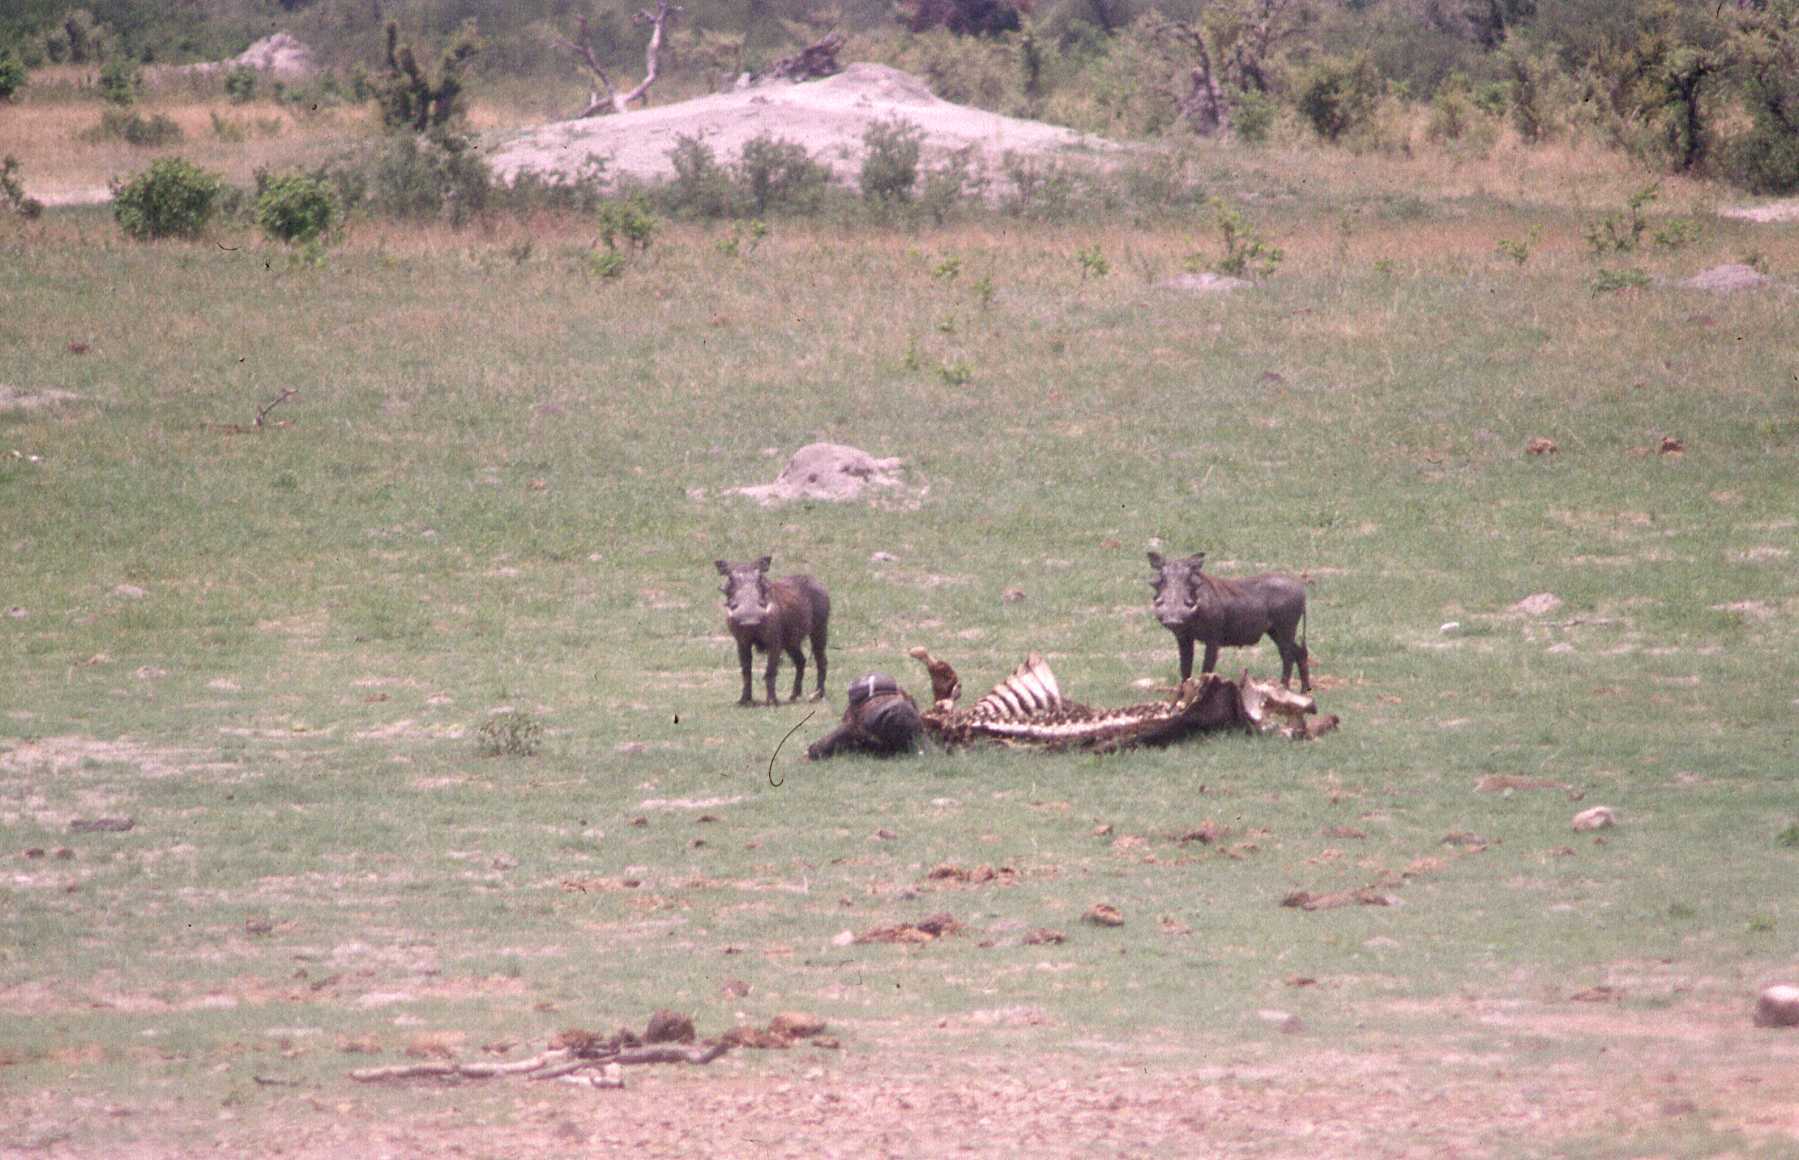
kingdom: Animalia
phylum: Chordata
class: Mammalia
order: Artiodactyla
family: Suidae
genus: Phacochoerus
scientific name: Phacochoerus africanus
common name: Common warthog
